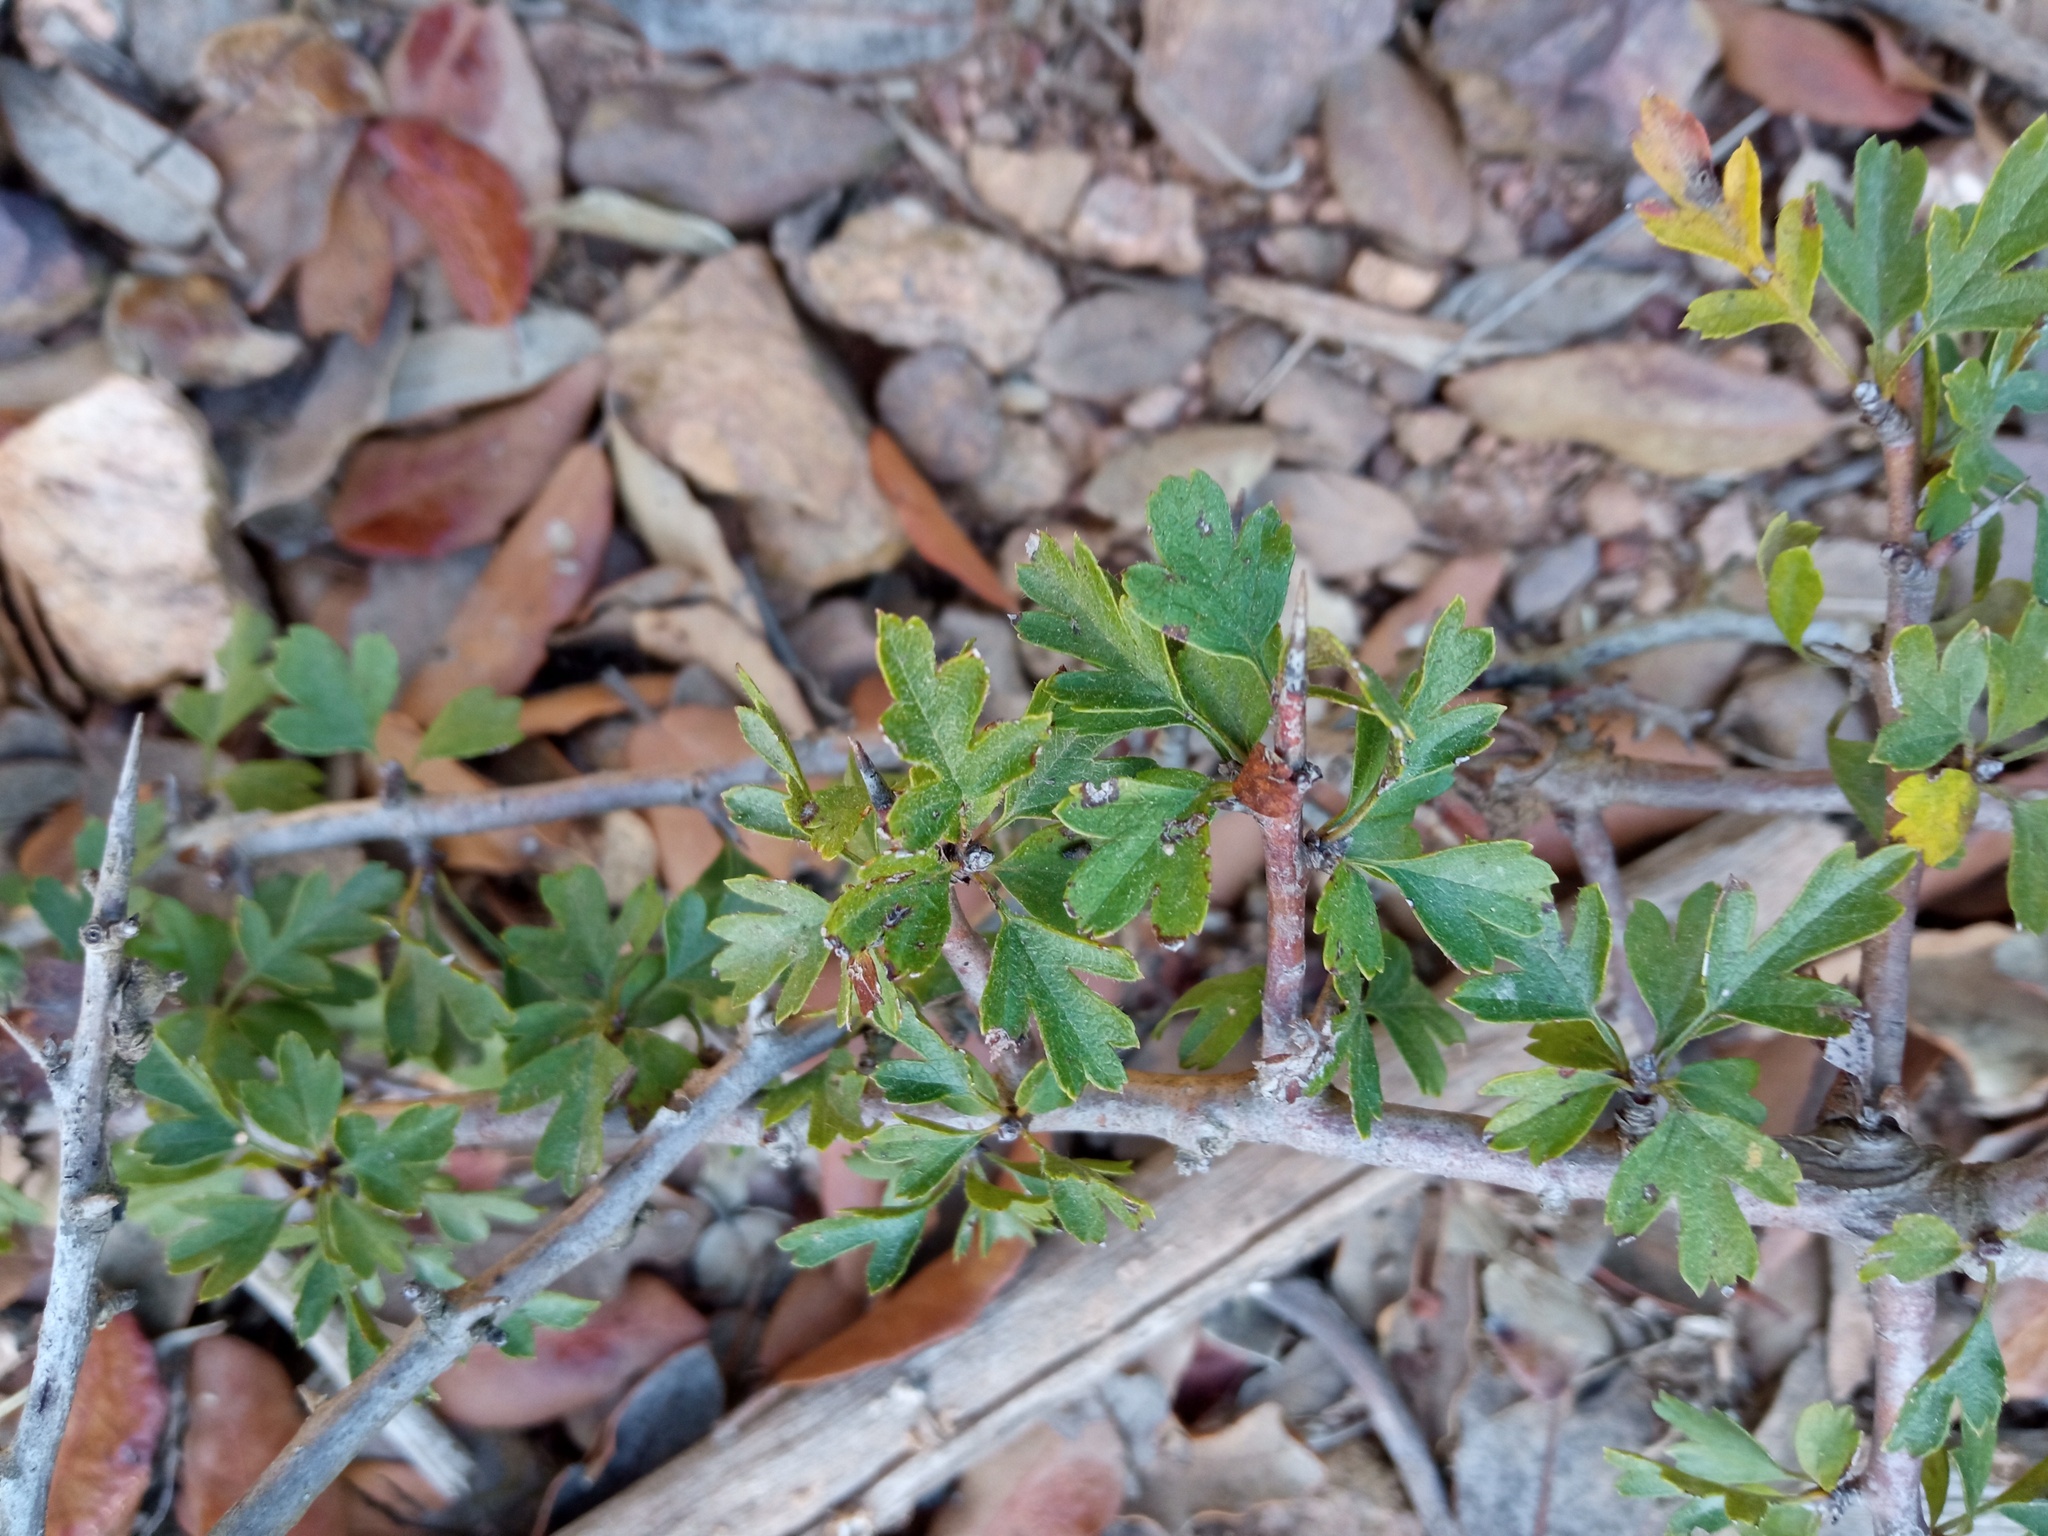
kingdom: Plantae
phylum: Tracheophyta
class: Magnoliopsida
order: Rosales
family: Rosaceae
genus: Crataegus
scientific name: Crataegus monogyna
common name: Hawthorn
